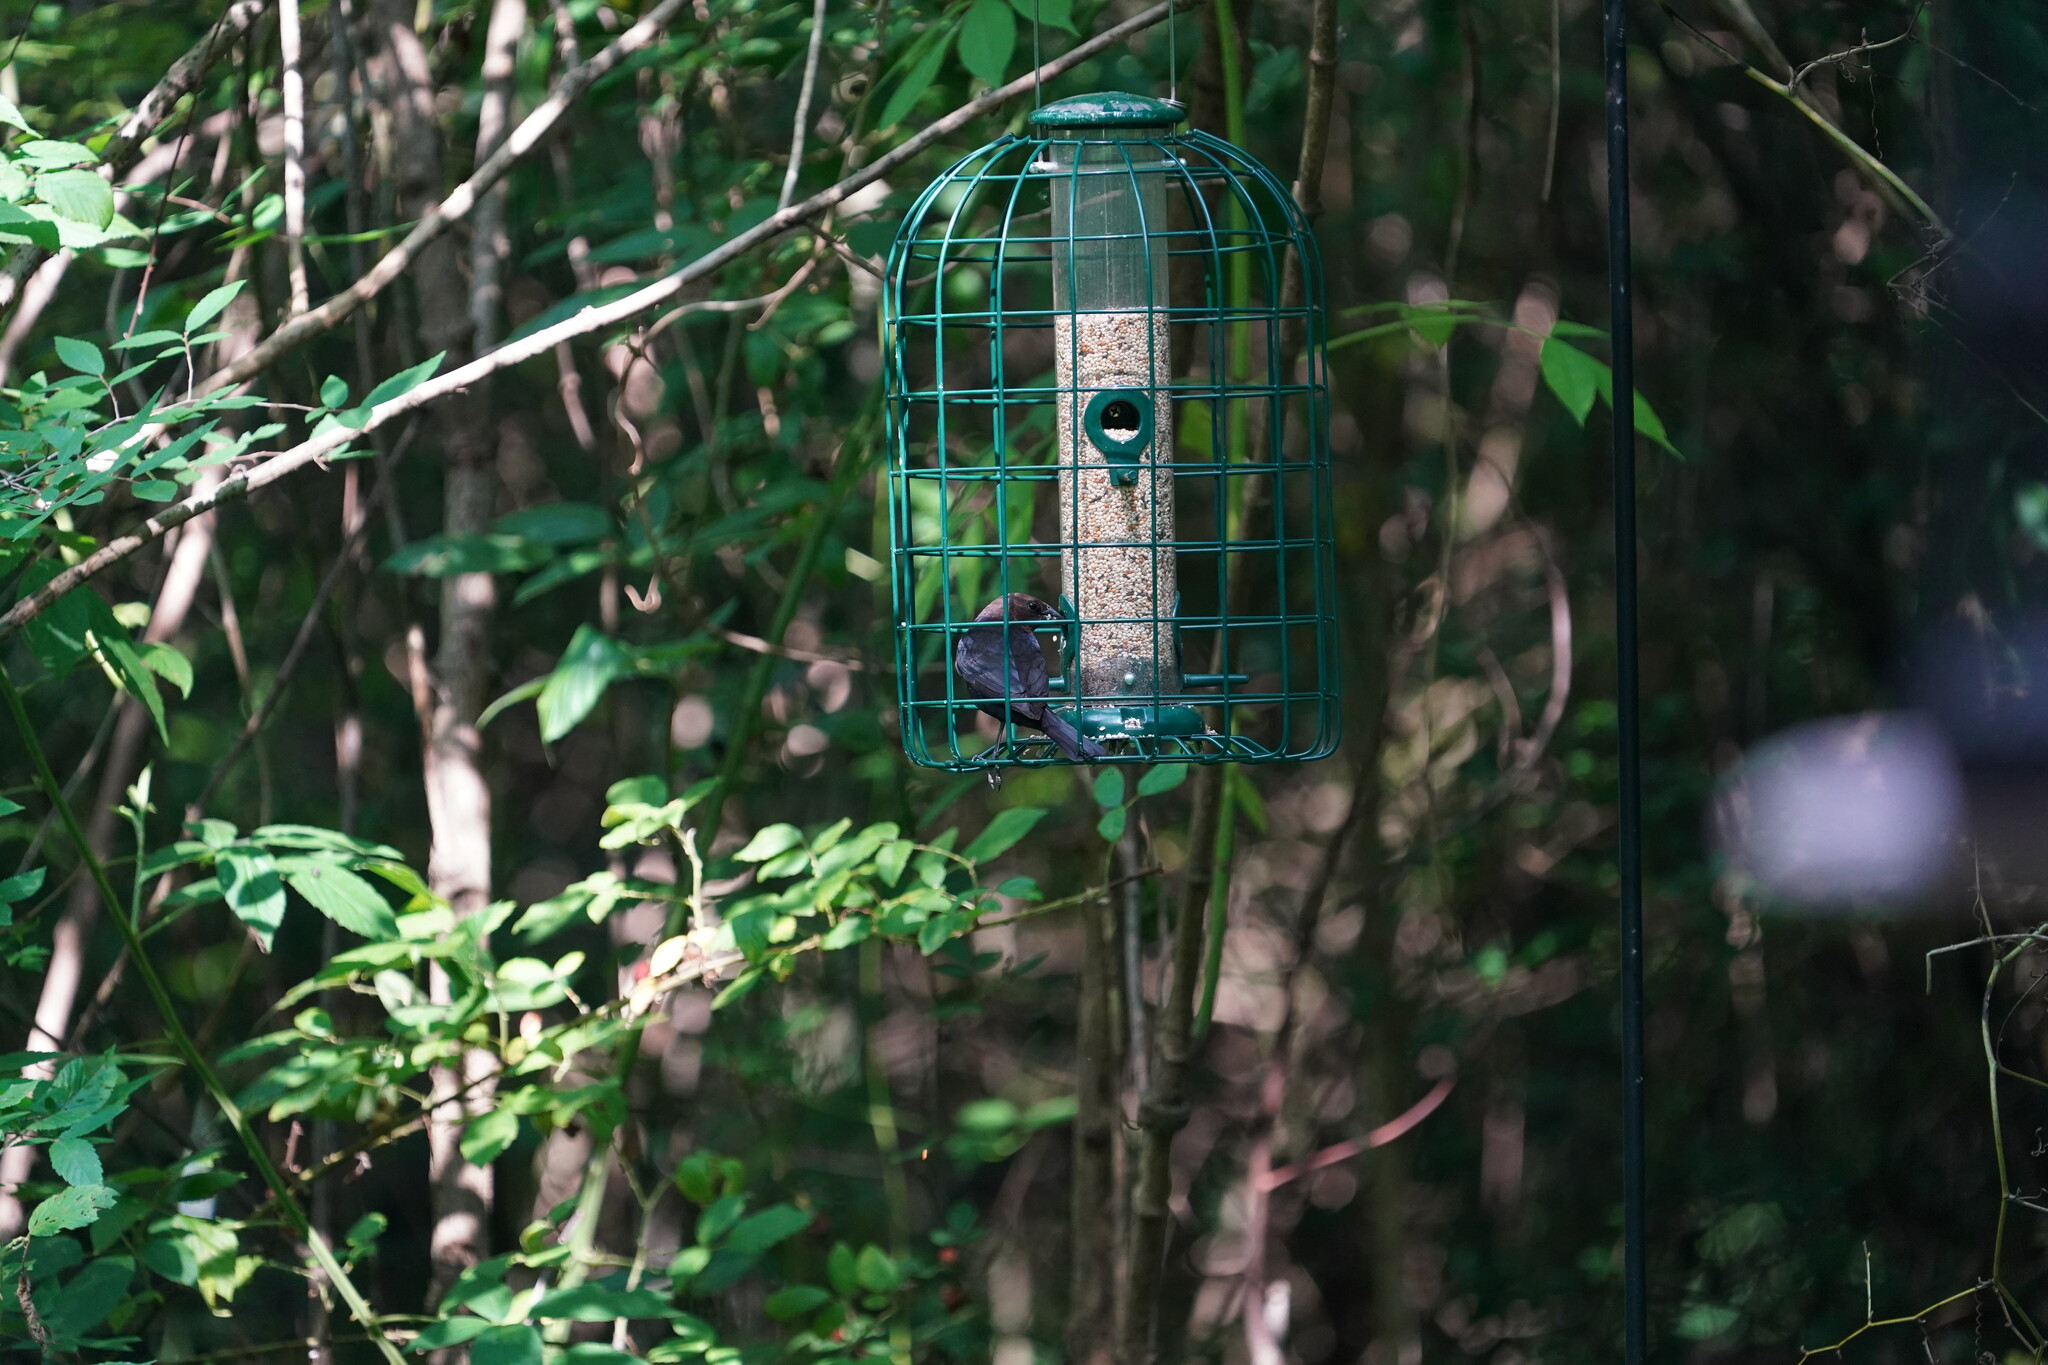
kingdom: Animalia
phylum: Chordata
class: Aves
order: Passeriformes
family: Icteridae
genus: Molothrus
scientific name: Molothrus ater
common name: Brown-headed cowbird
